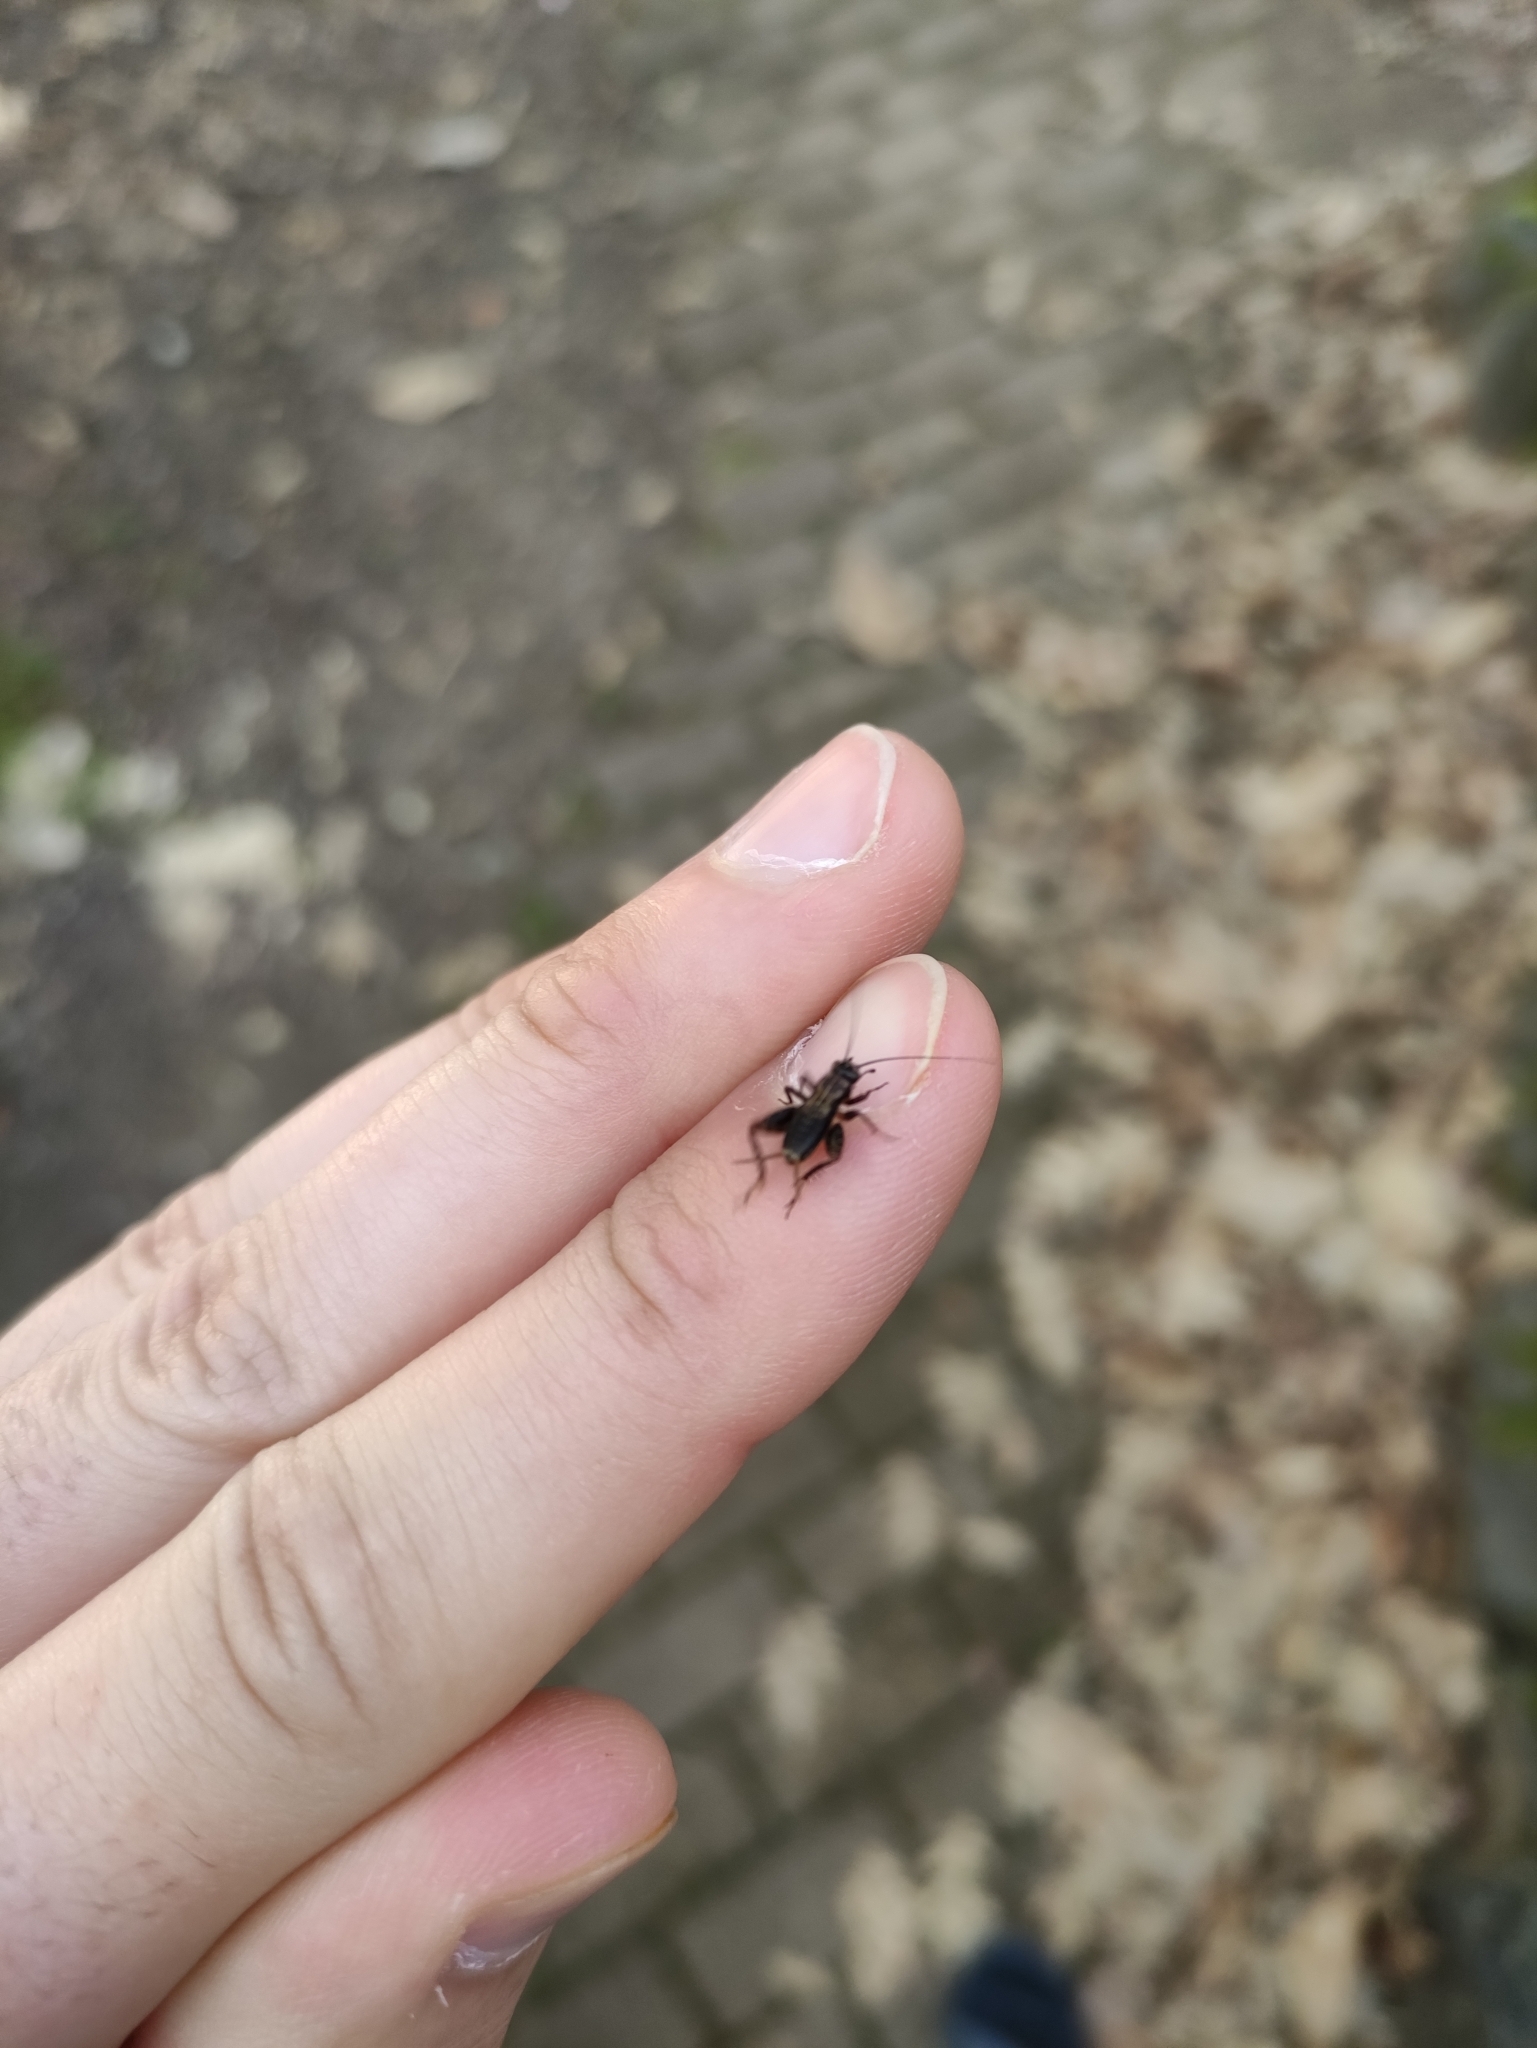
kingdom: Animalia
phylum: Arthropoda
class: Insecta
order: Orthoptera
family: Trigonidiidae
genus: Nemobius
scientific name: Nemobius sylvestris
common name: Wood-cricket
